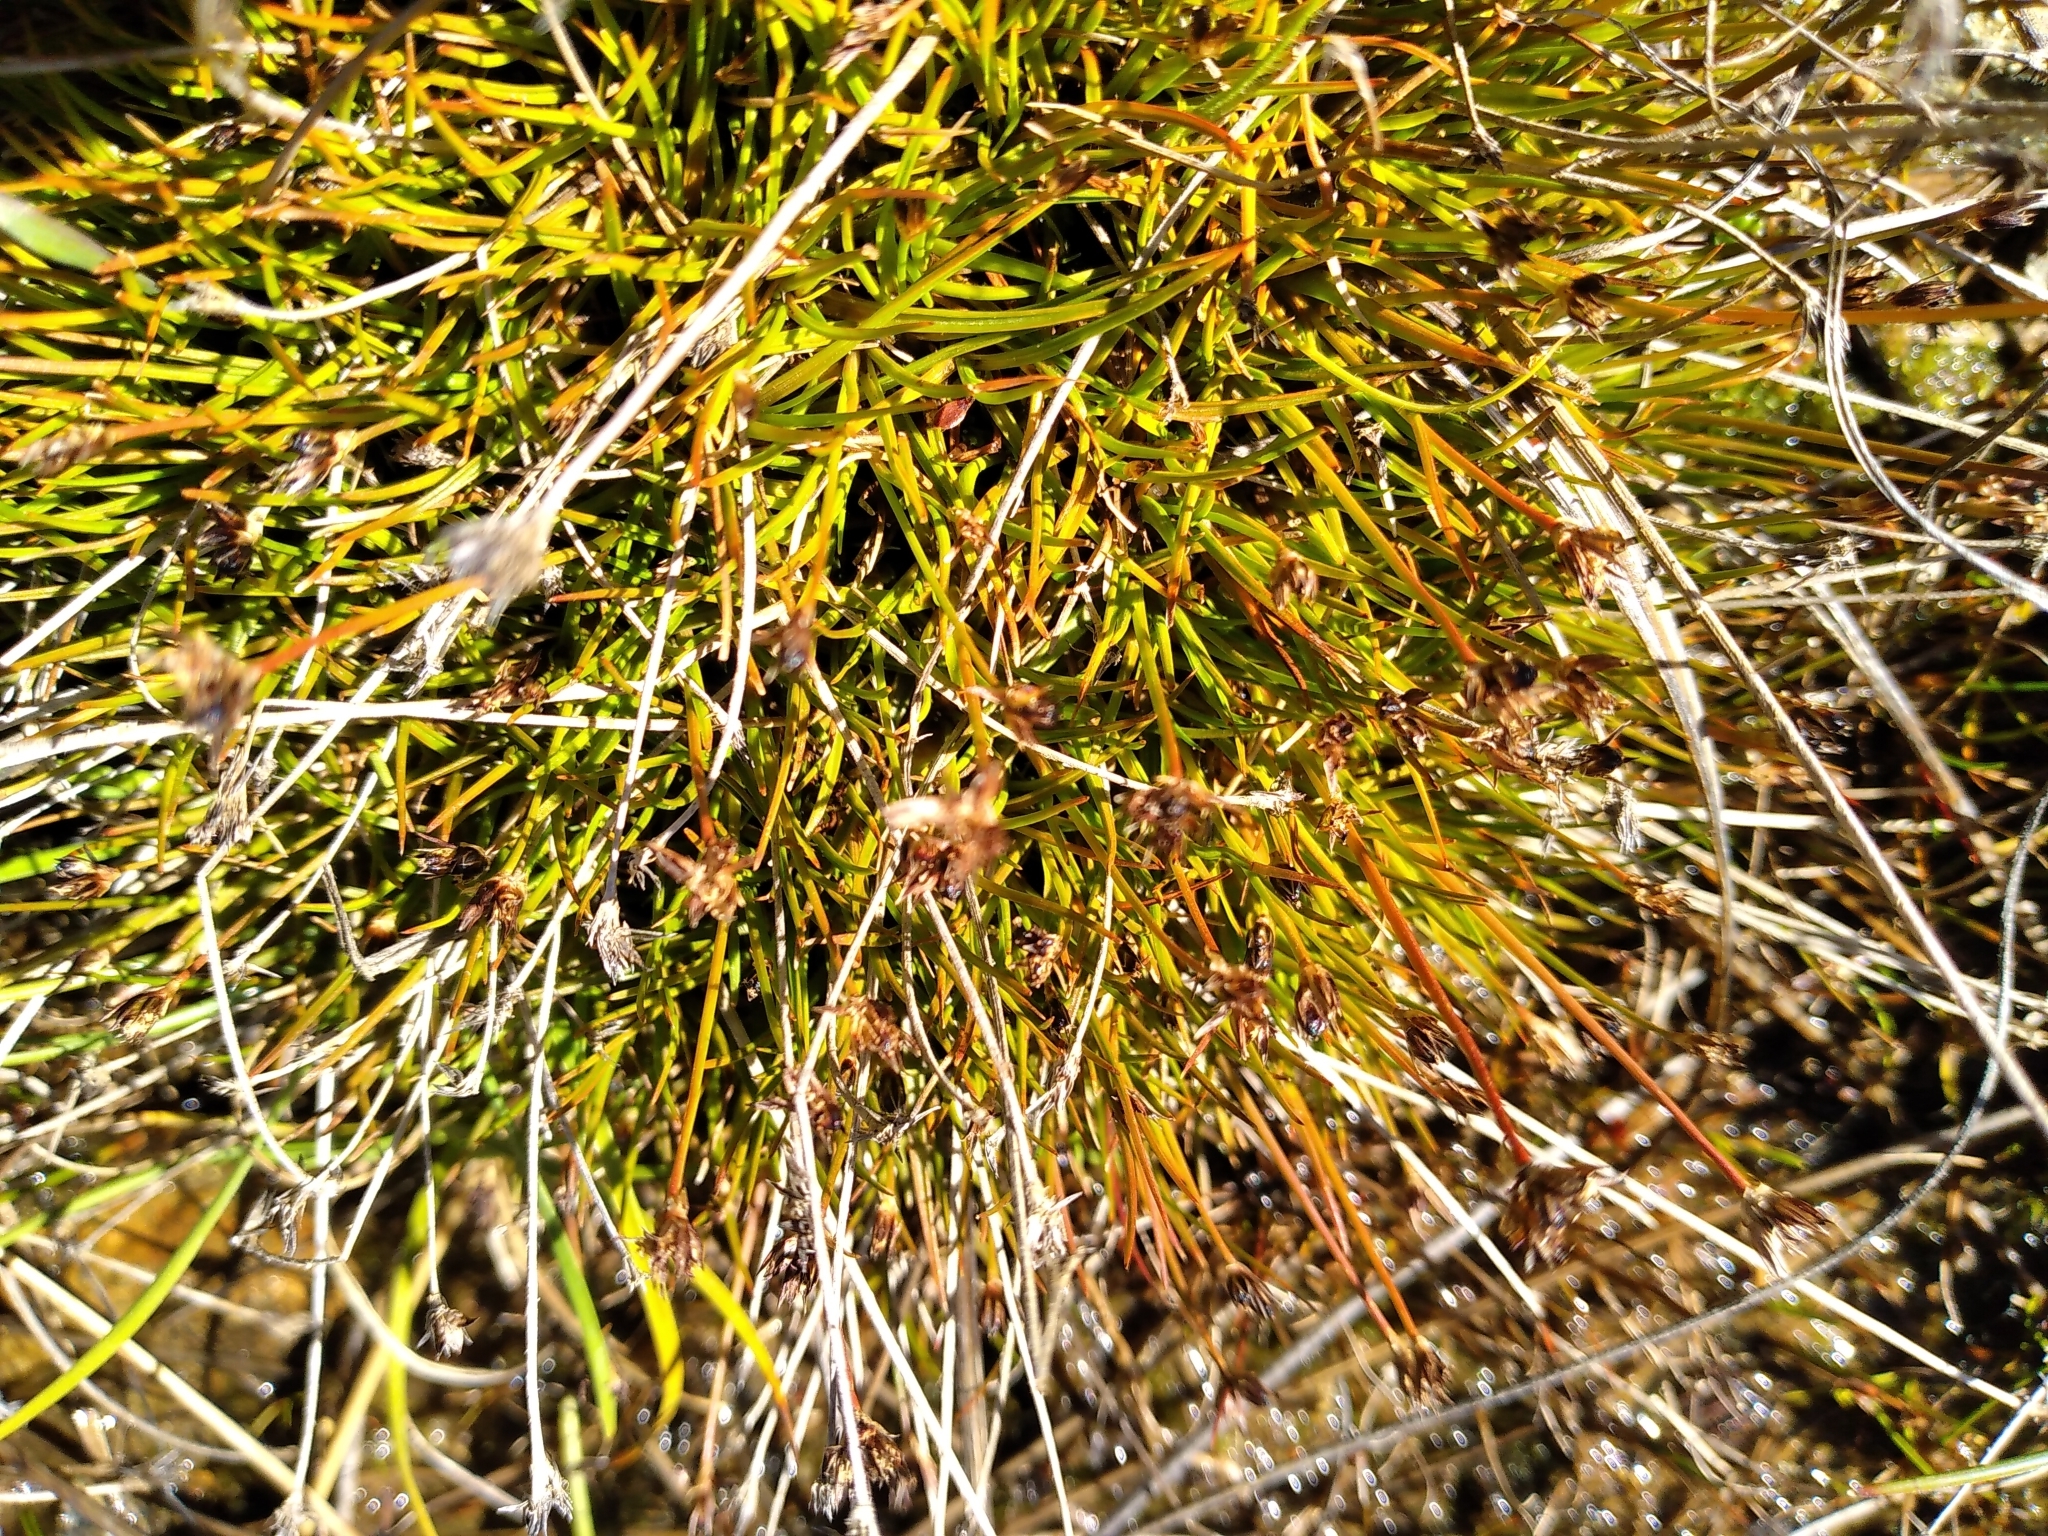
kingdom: Plantae
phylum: Tracheophyta
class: Liliopsida
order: Poales
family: Juncaceae
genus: Juncus
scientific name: Juncus antarcticus
